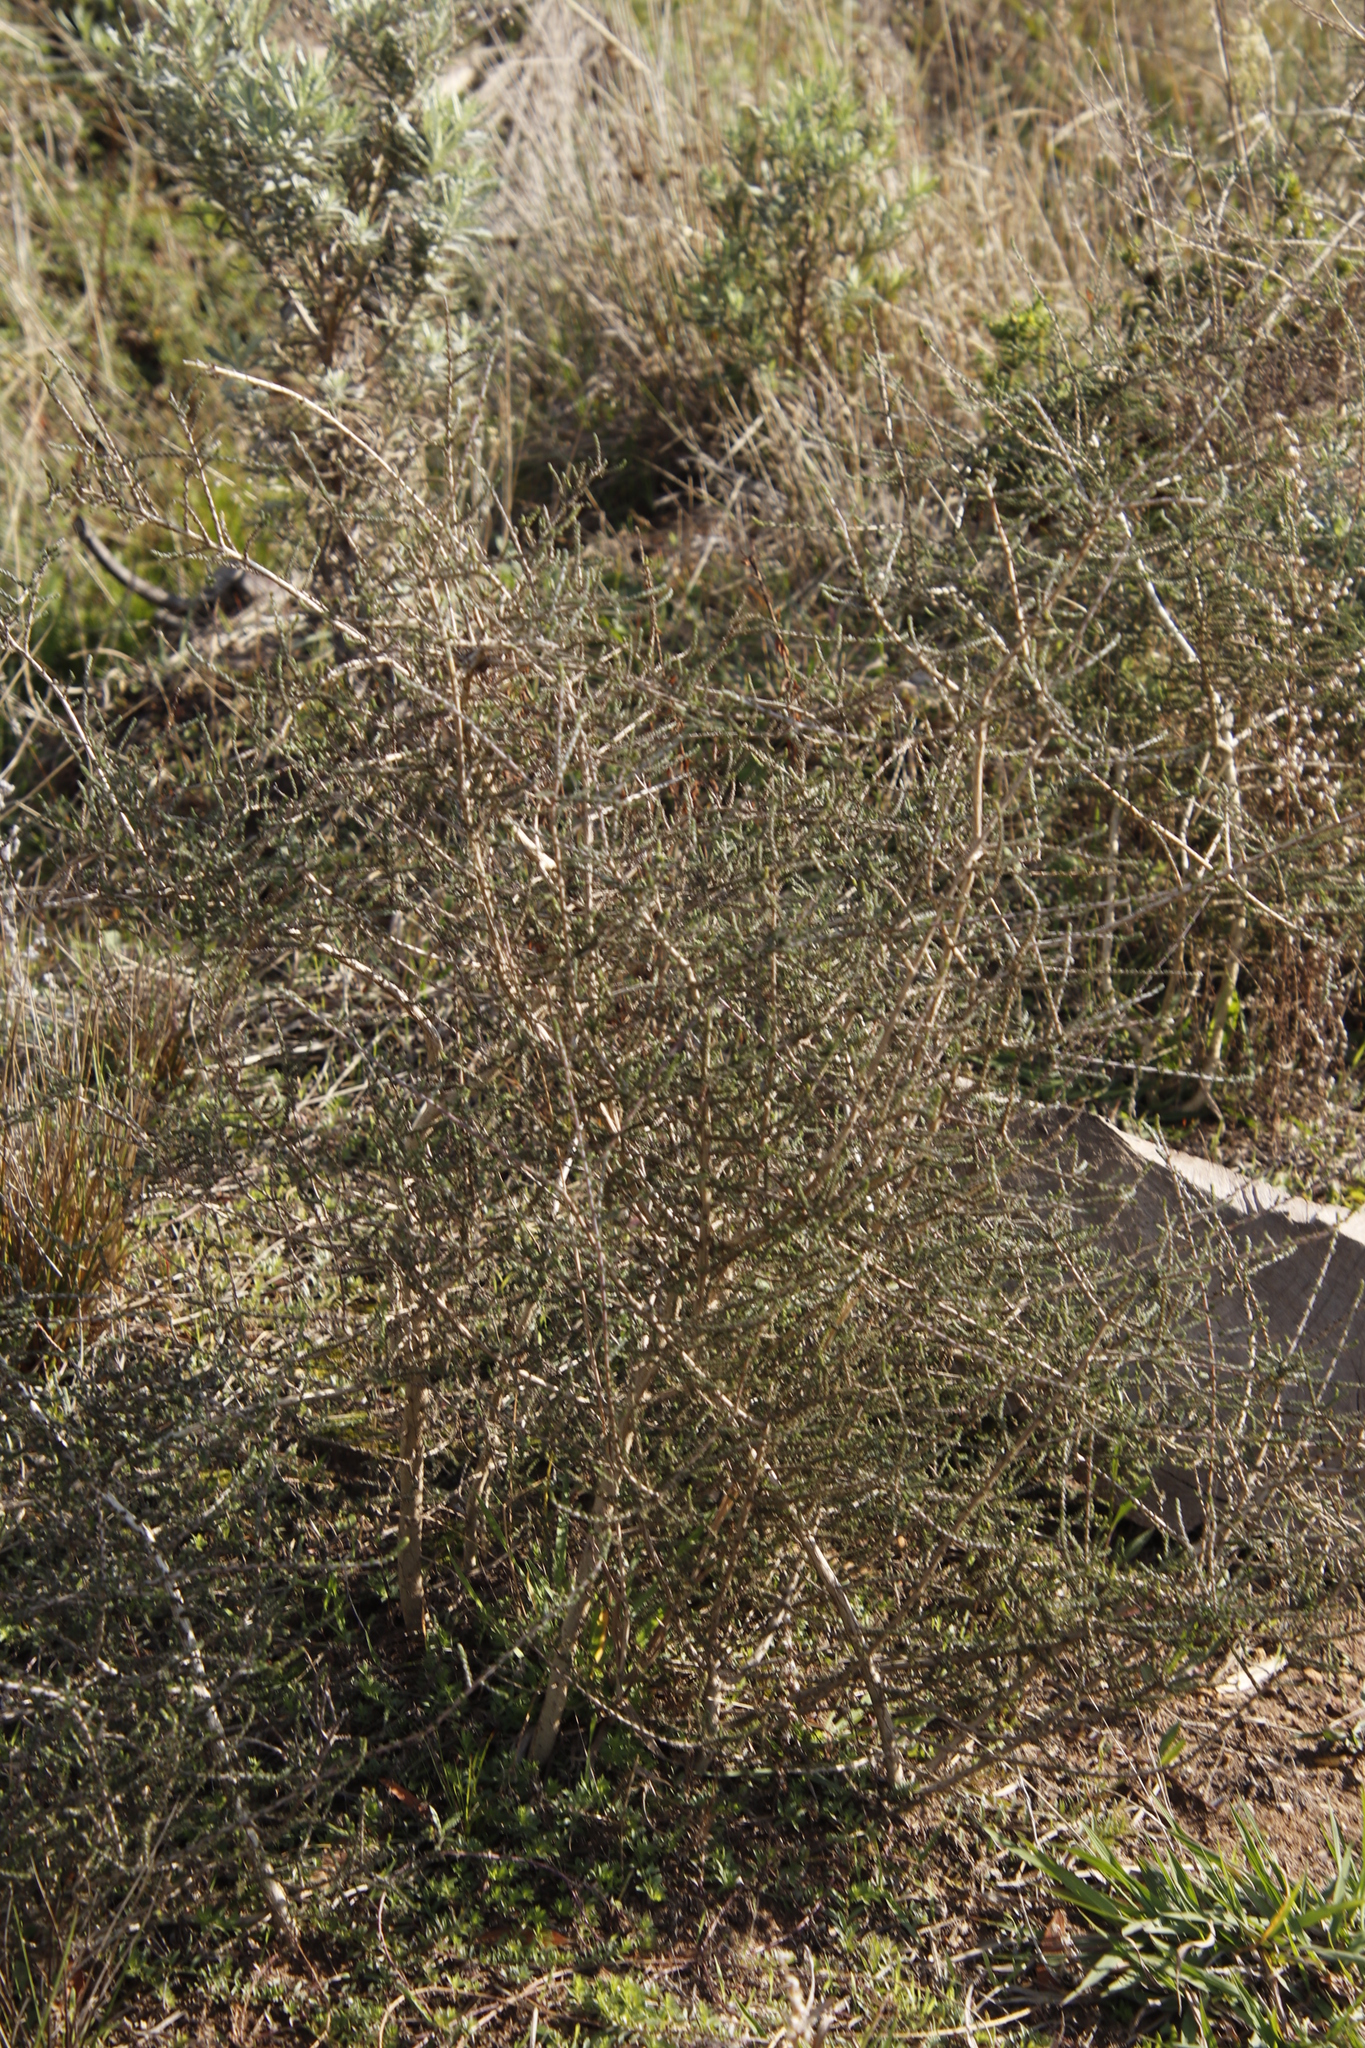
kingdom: Plantae
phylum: Tracheophyta
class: Magnoliopsida
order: Fabales
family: Fabaceae
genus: Aspalathus
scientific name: Aspalathus hispida
